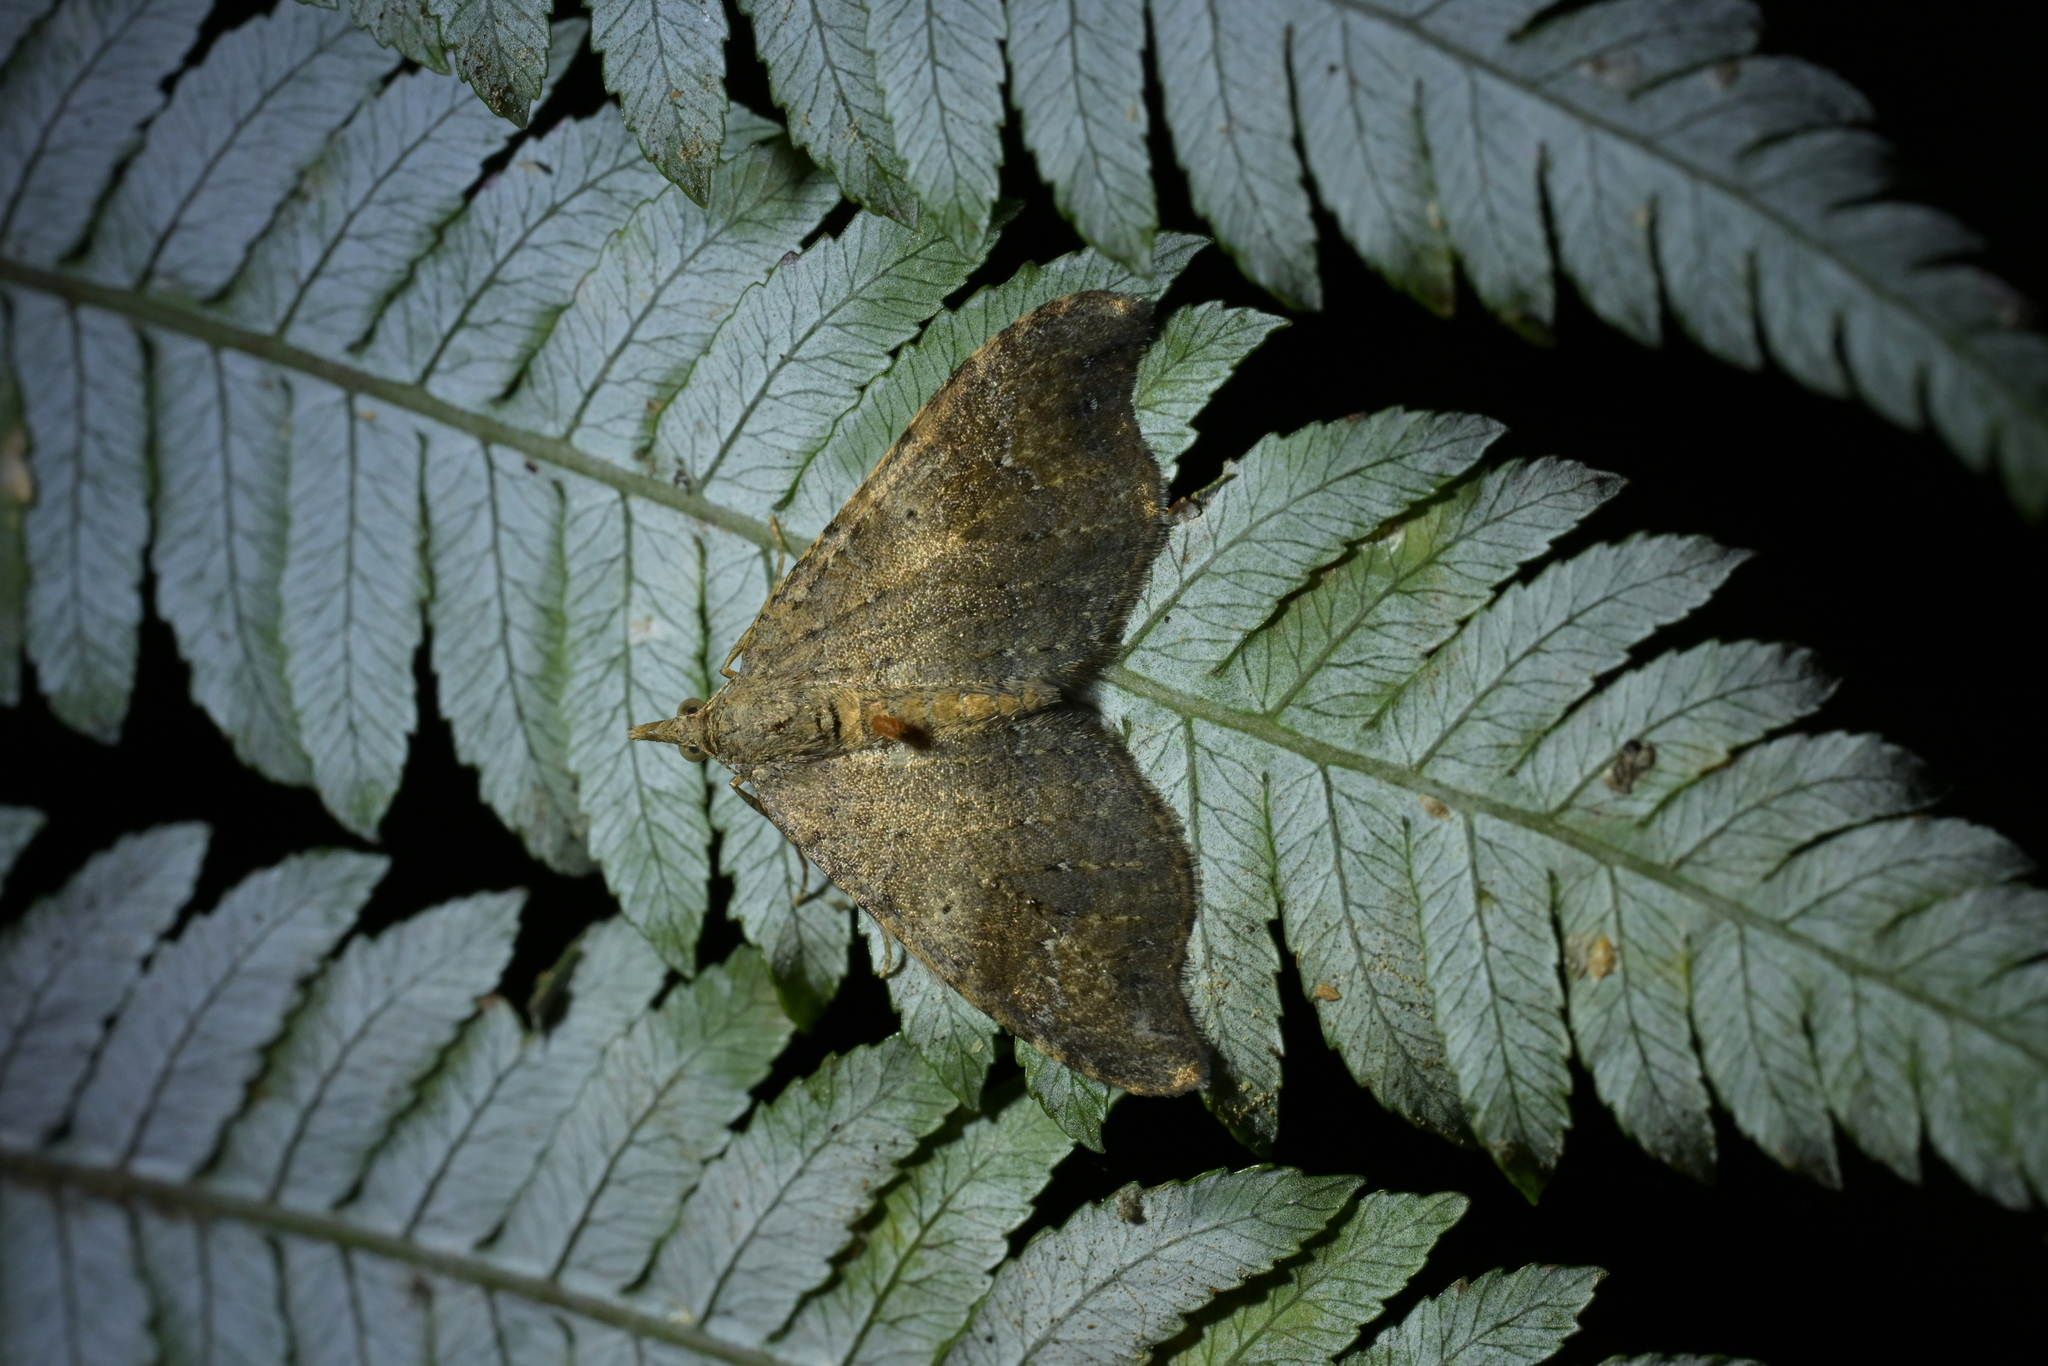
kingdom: Animalia
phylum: Arthropoda
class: Insecta
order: Lepidoptera
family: Geometridae
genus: Homodotis
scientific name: Homodotis megaspilata
